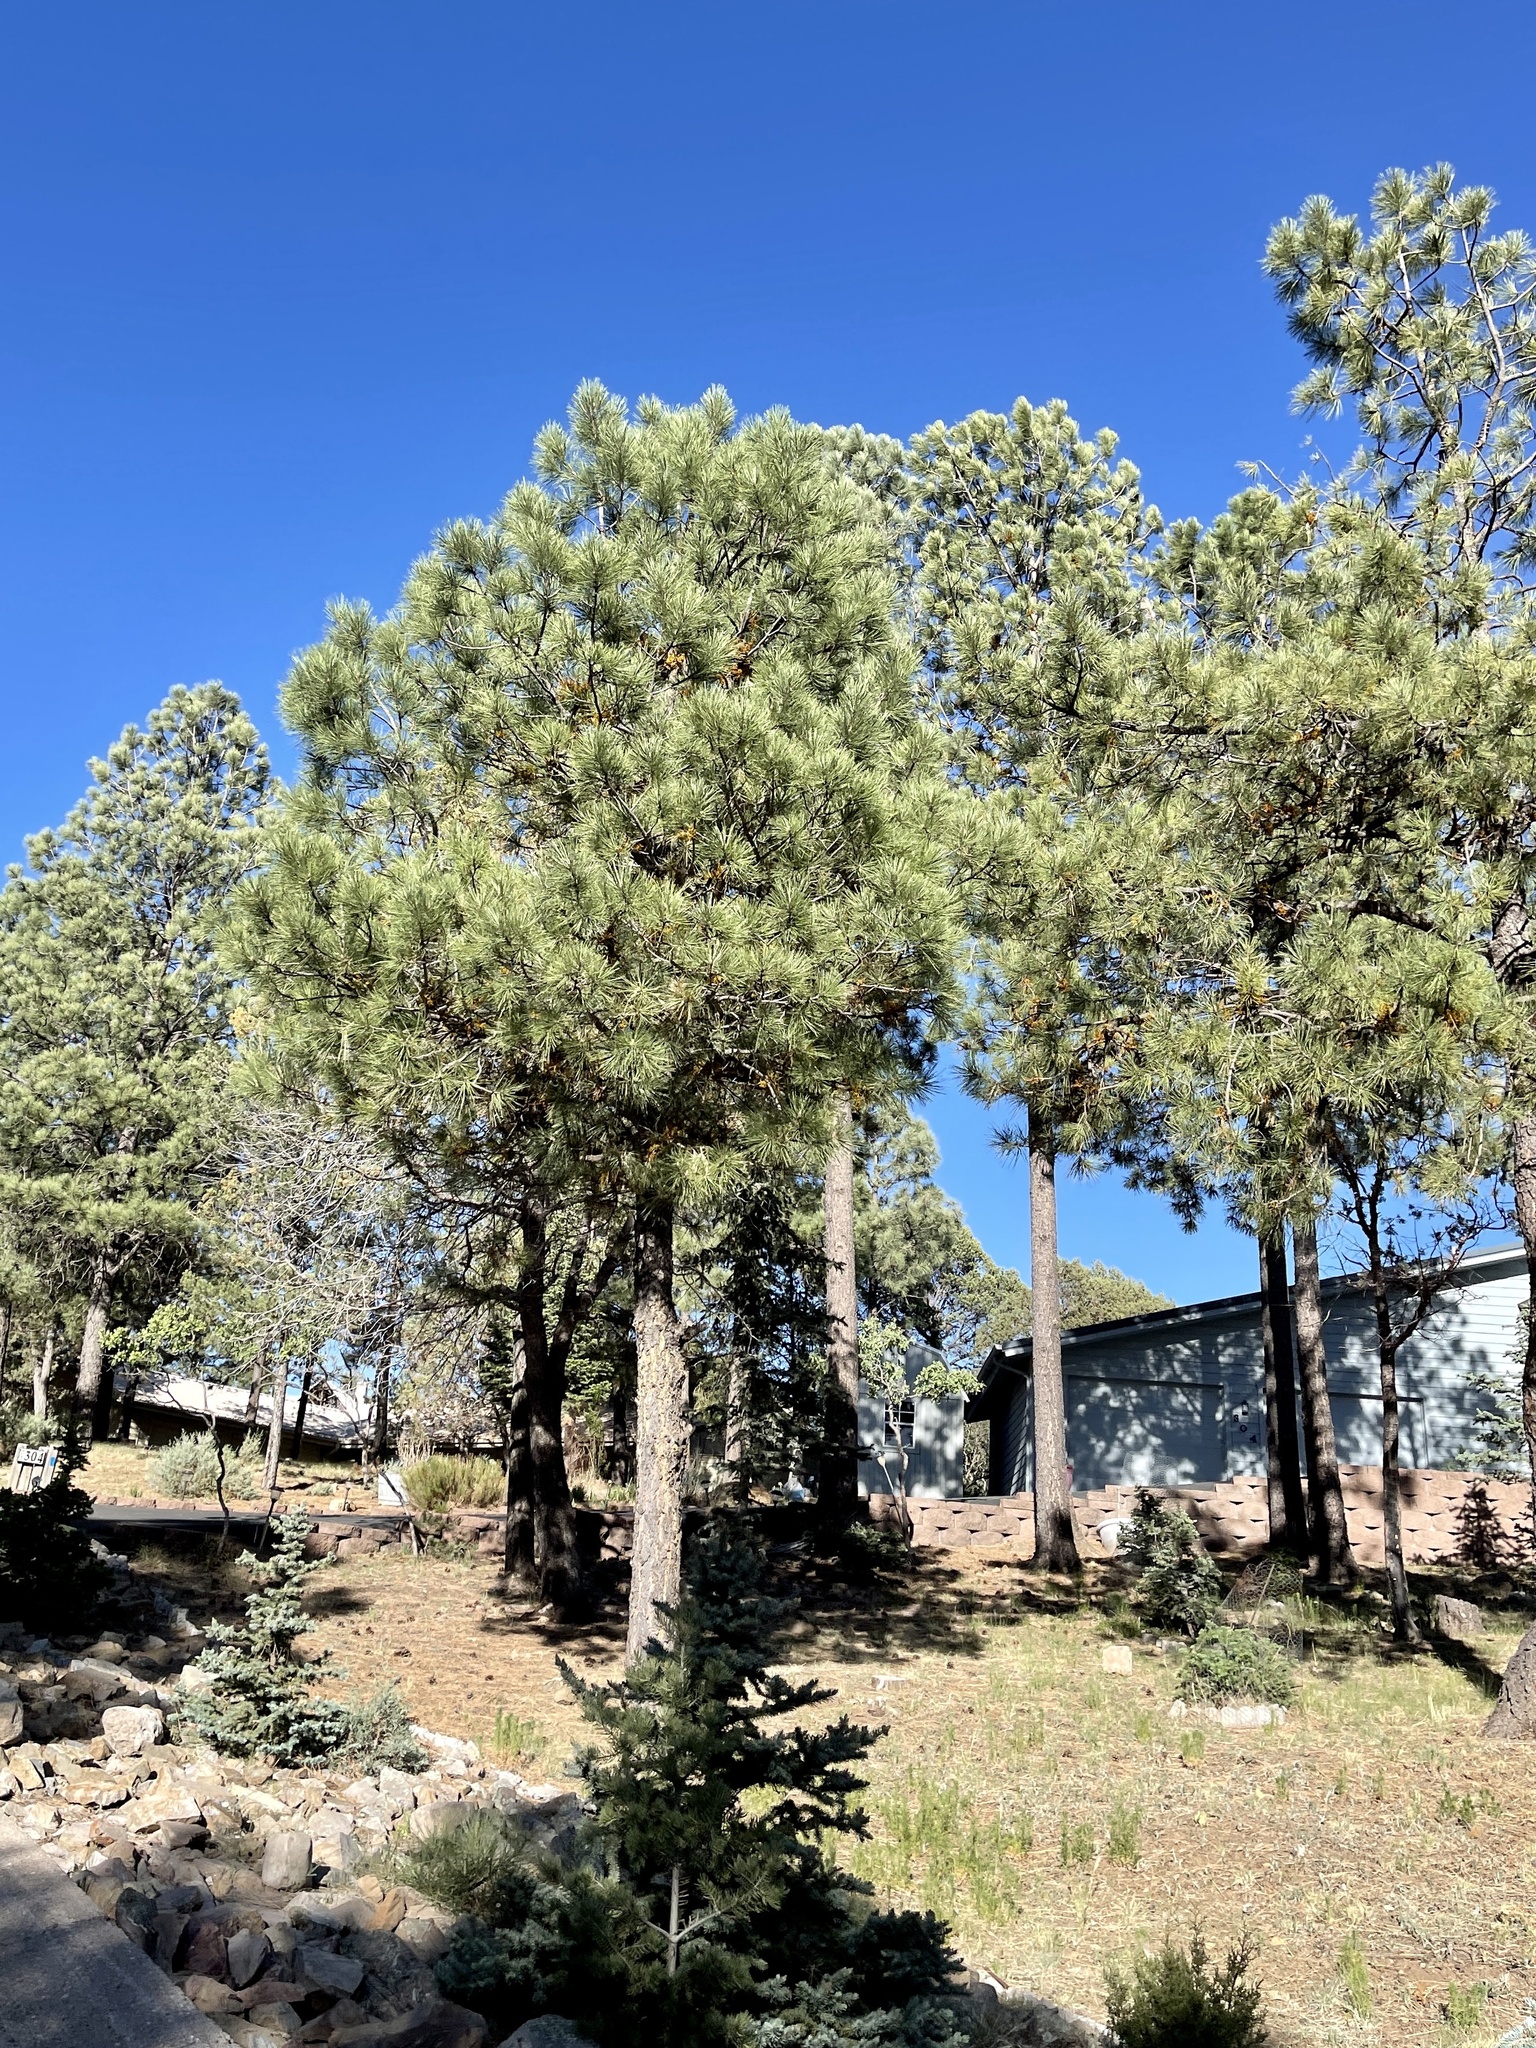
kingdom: Plantae
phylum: Tracheophyta
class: Pinopsida
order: Pinales
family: Pinaceae
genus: Pinus
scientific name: Pinus ponderosa
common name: Western yellow-pine
